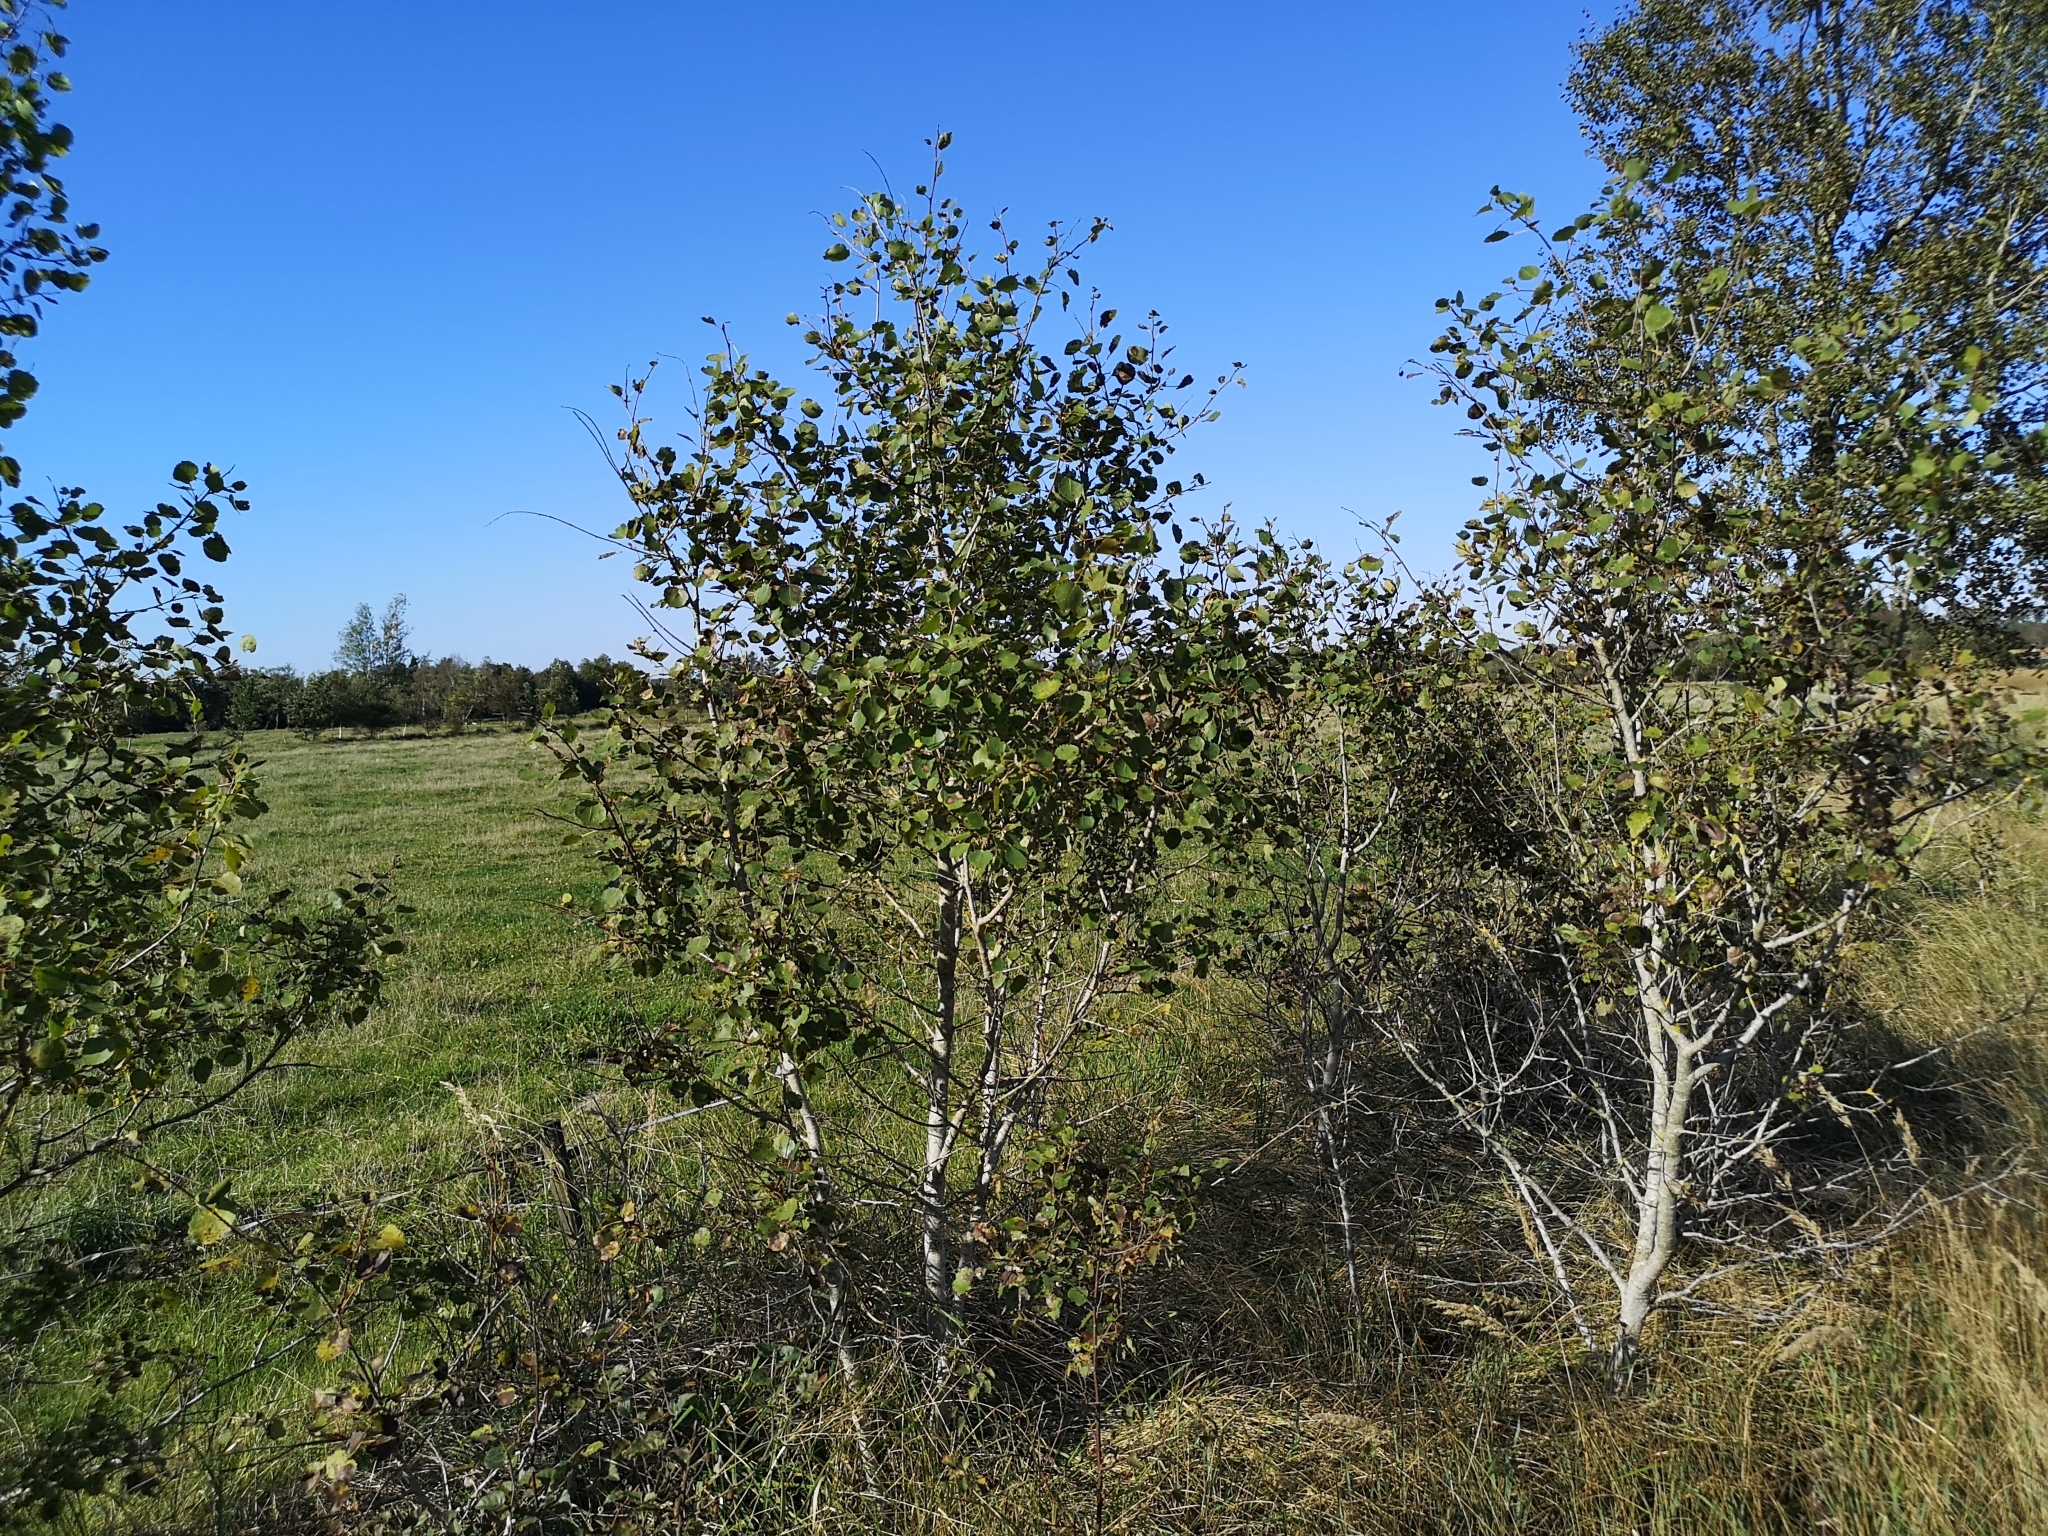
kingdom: Plantae
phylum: Tracheophyta
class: Magnoliopsida
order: Malpighiales
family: Salicaceae
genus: Populus
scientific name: Populus tremula
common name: European aspen
